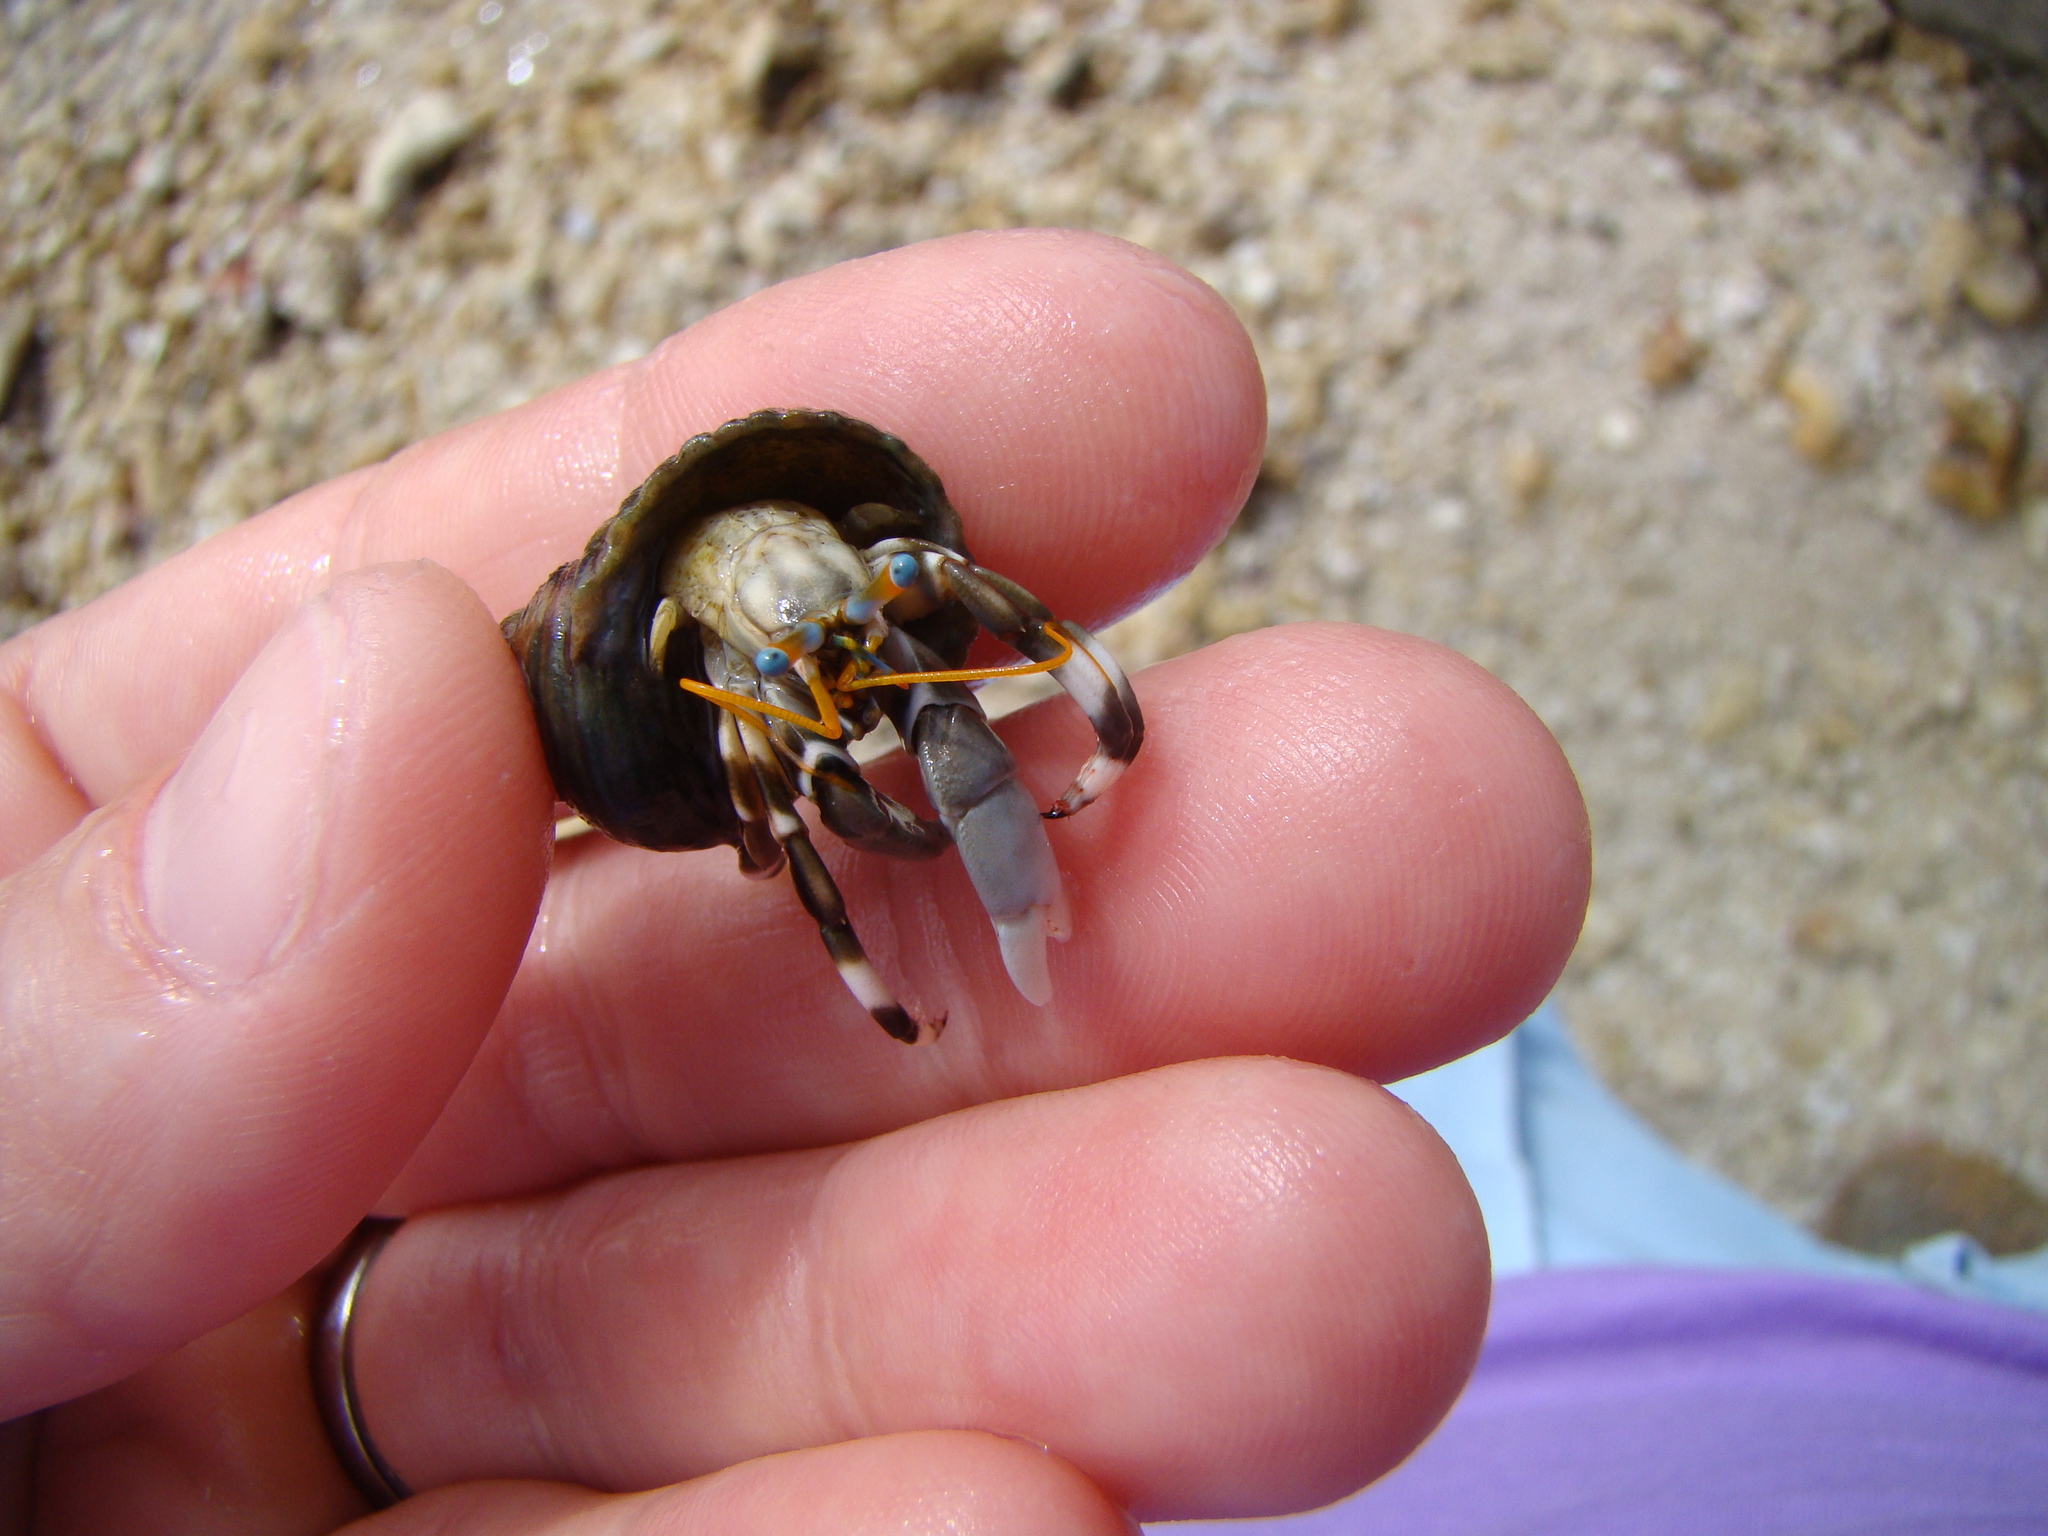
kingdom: Animalia
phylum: Arthropoda
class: Malacostraca
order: Decapoda
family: Diogenidae
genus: Calcinus
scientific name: Calcinus seurati
